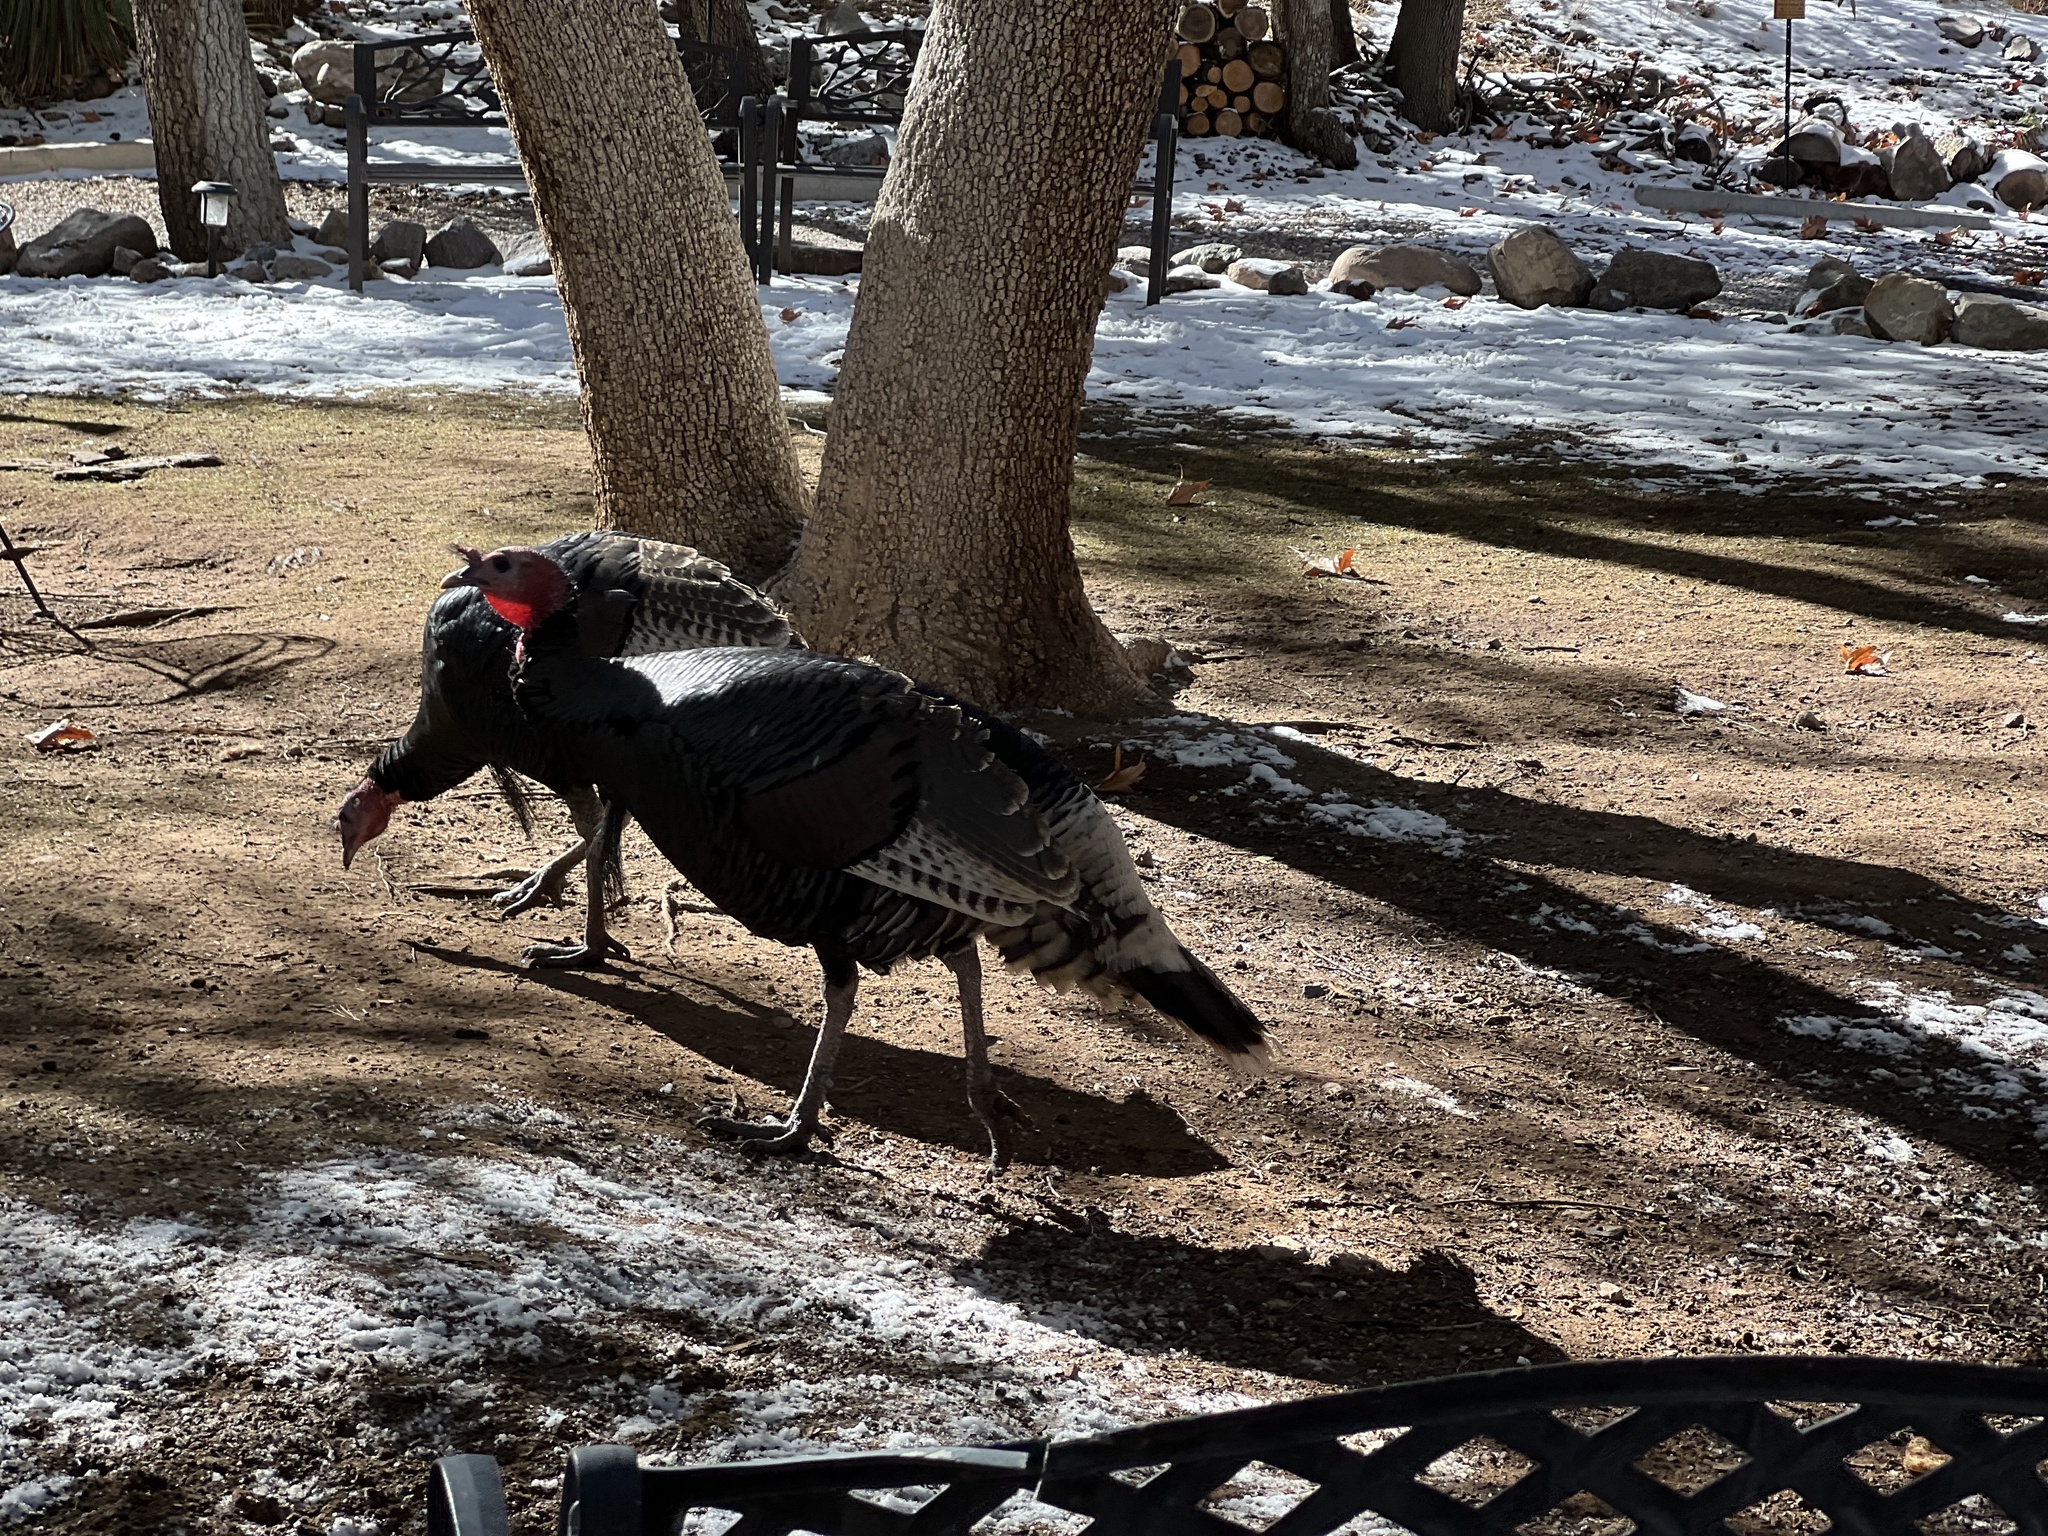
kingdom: Animalia
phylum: Chordata
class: Aves
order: Galliformes
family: Phasianidae
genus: Meleagris
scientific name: Meleagris gallopavo
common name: Wild turkey
